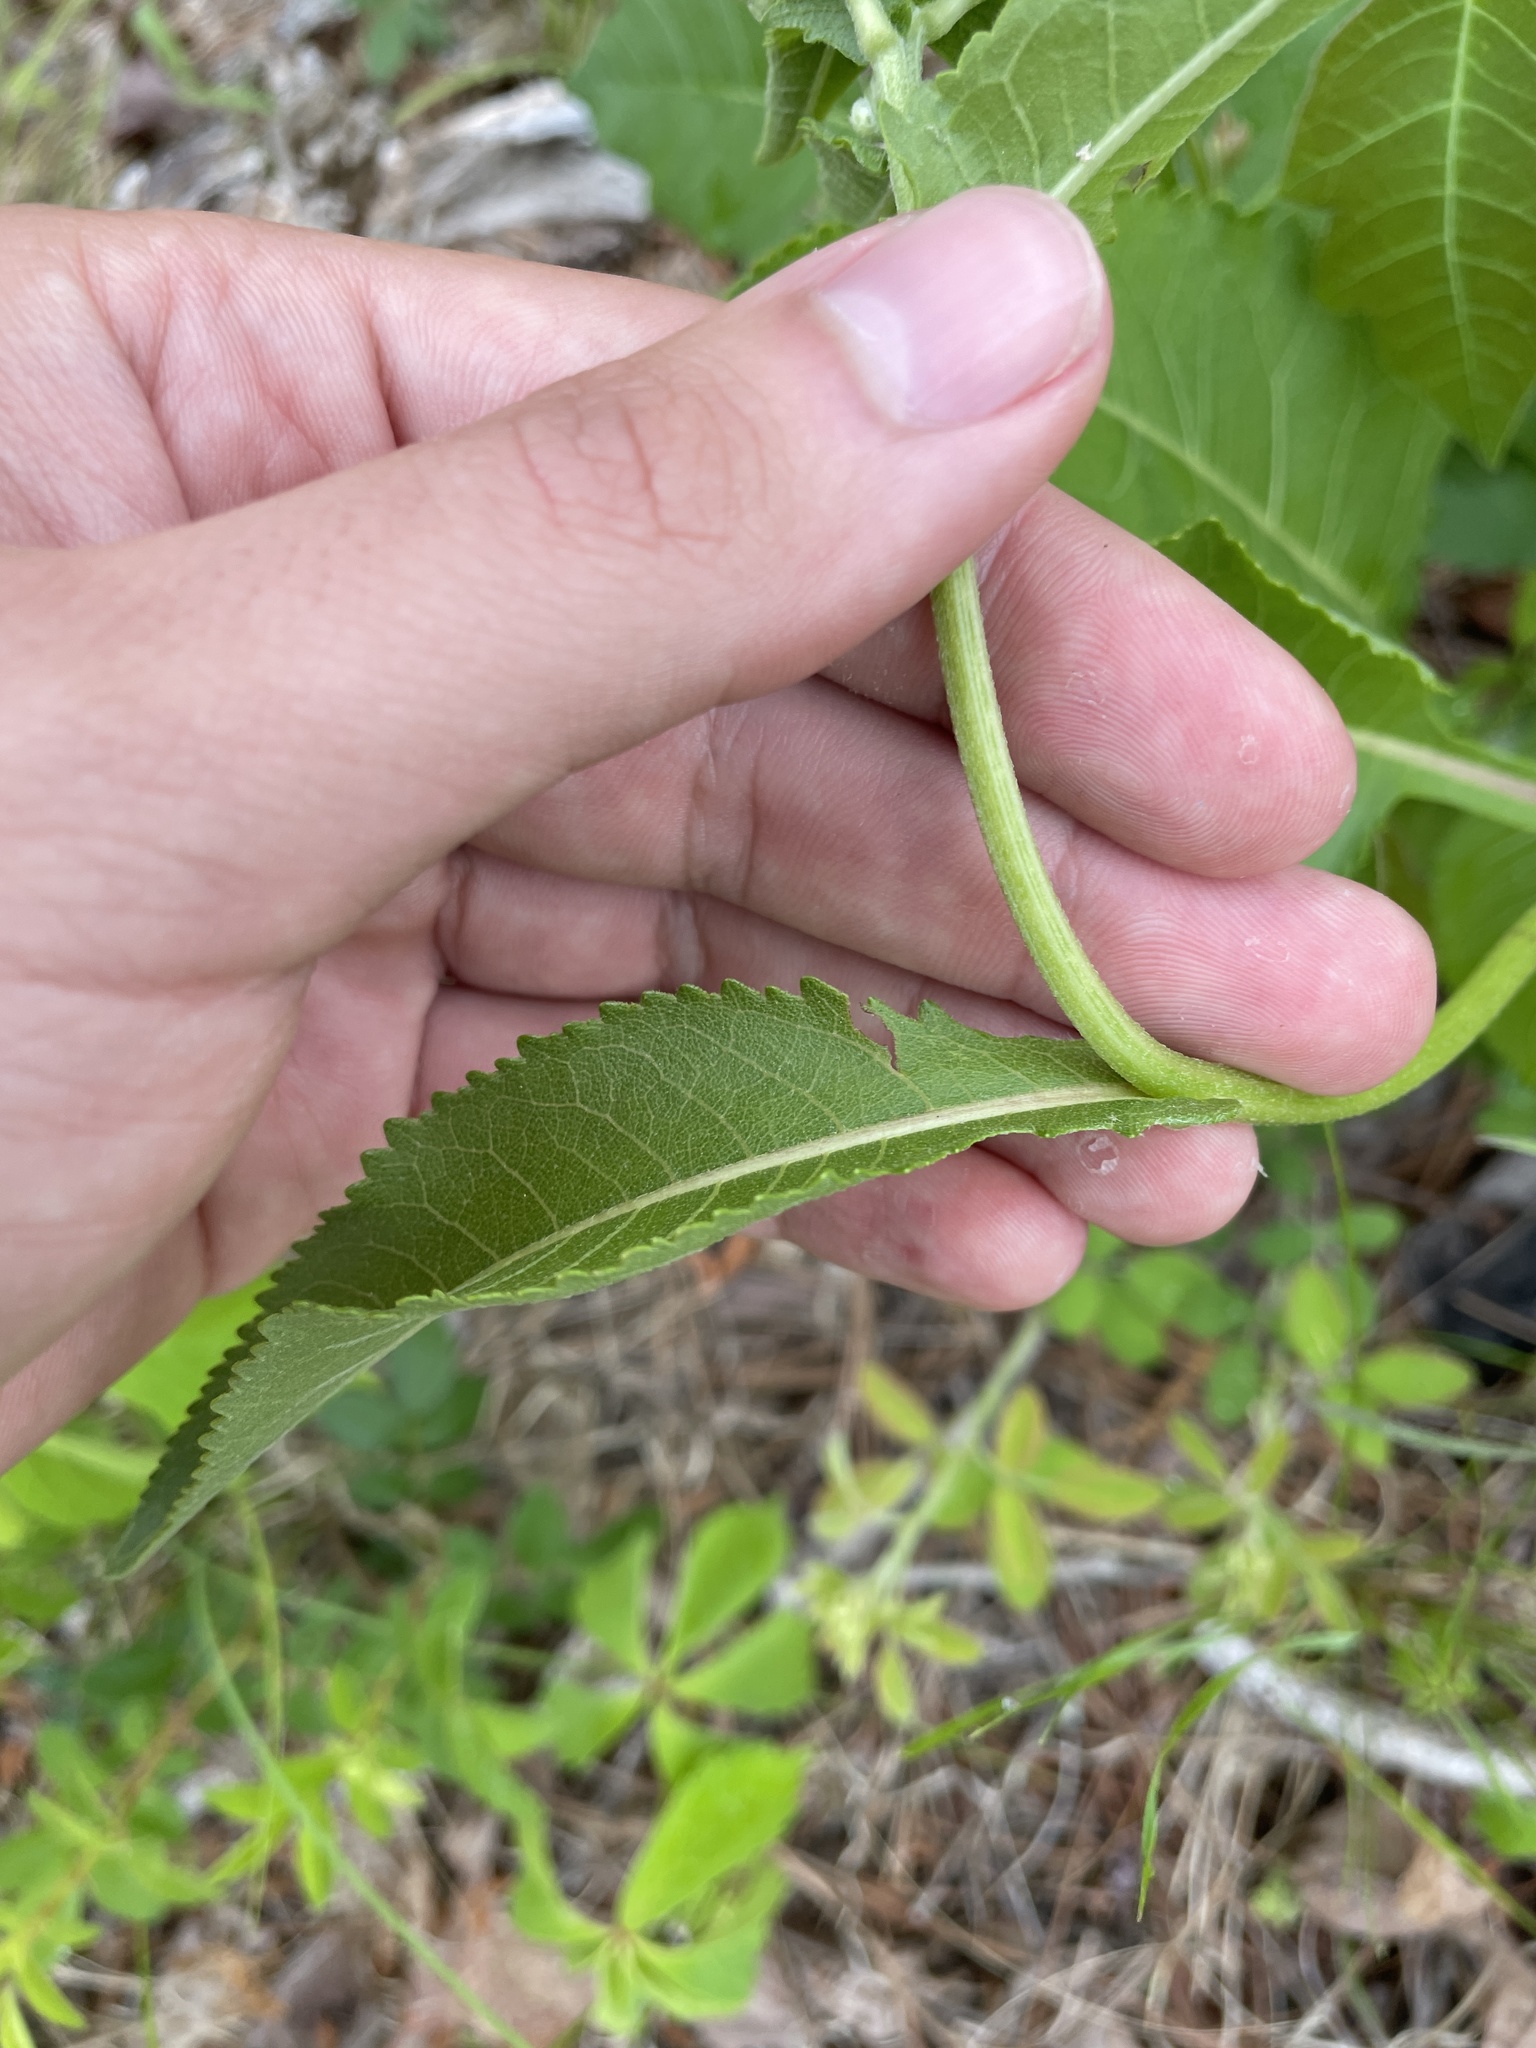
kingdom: Plantae
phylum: Tracheophyta
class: Magnoliopsida
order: Asterales
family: Asteraceae
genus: Parthenium
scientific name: Parthenium integrifolium
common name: American feverfew
